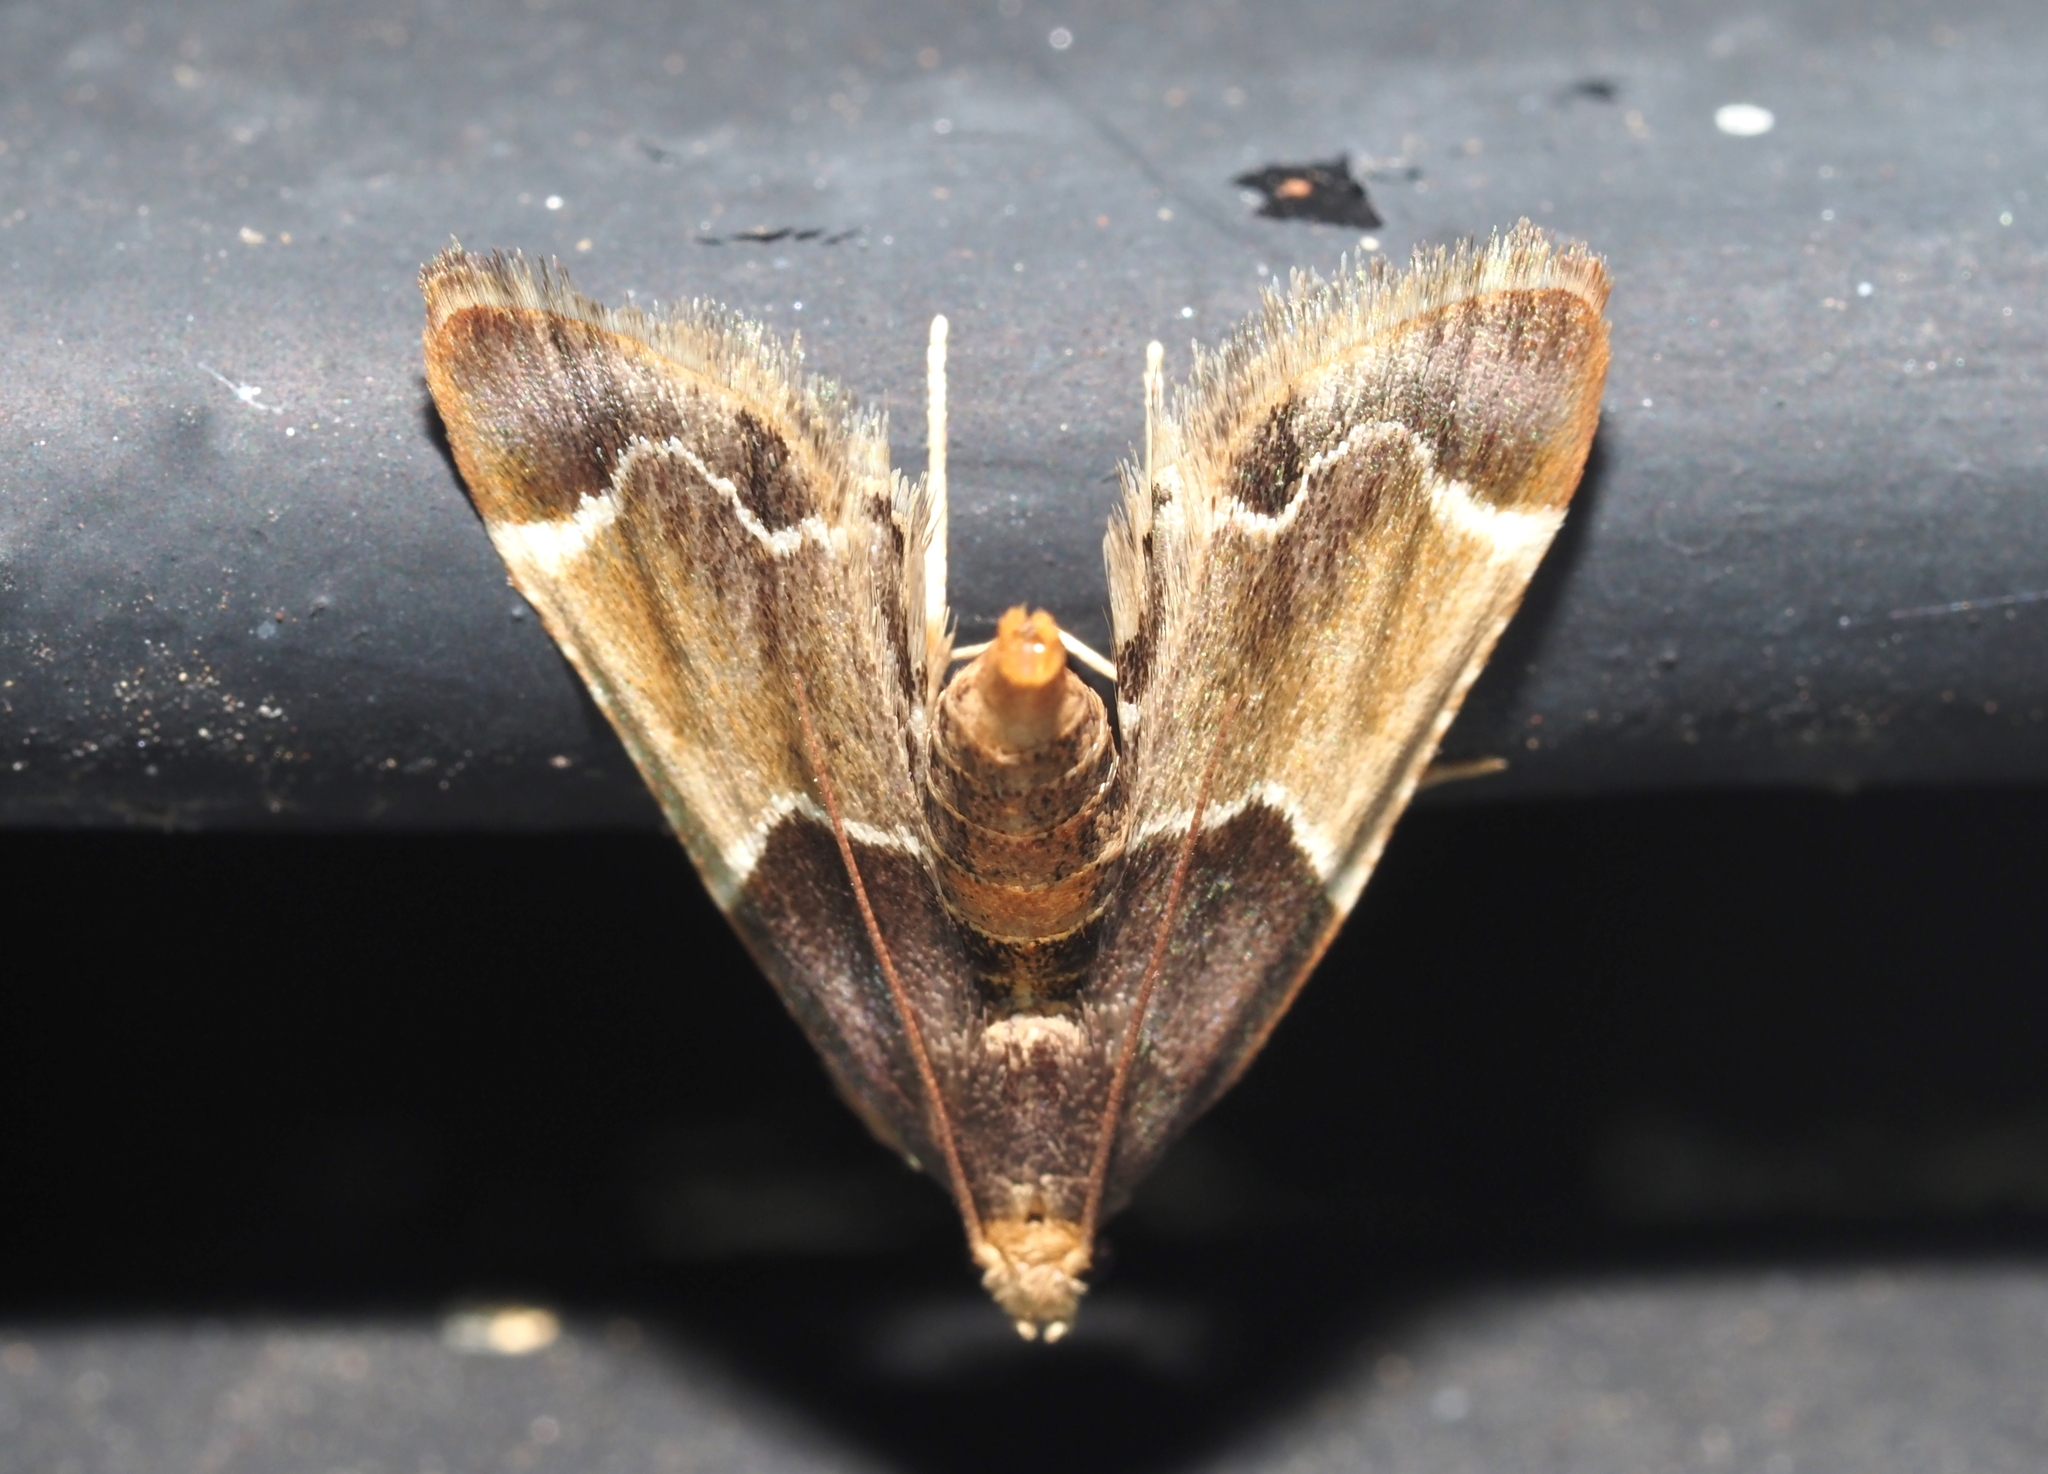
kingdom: Animalia
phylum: Arthropoda
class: Insecta
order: Lepidoptera
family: Pyralidae
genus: Pyralis
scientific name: Pyralis farinalis
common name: Meal moth
